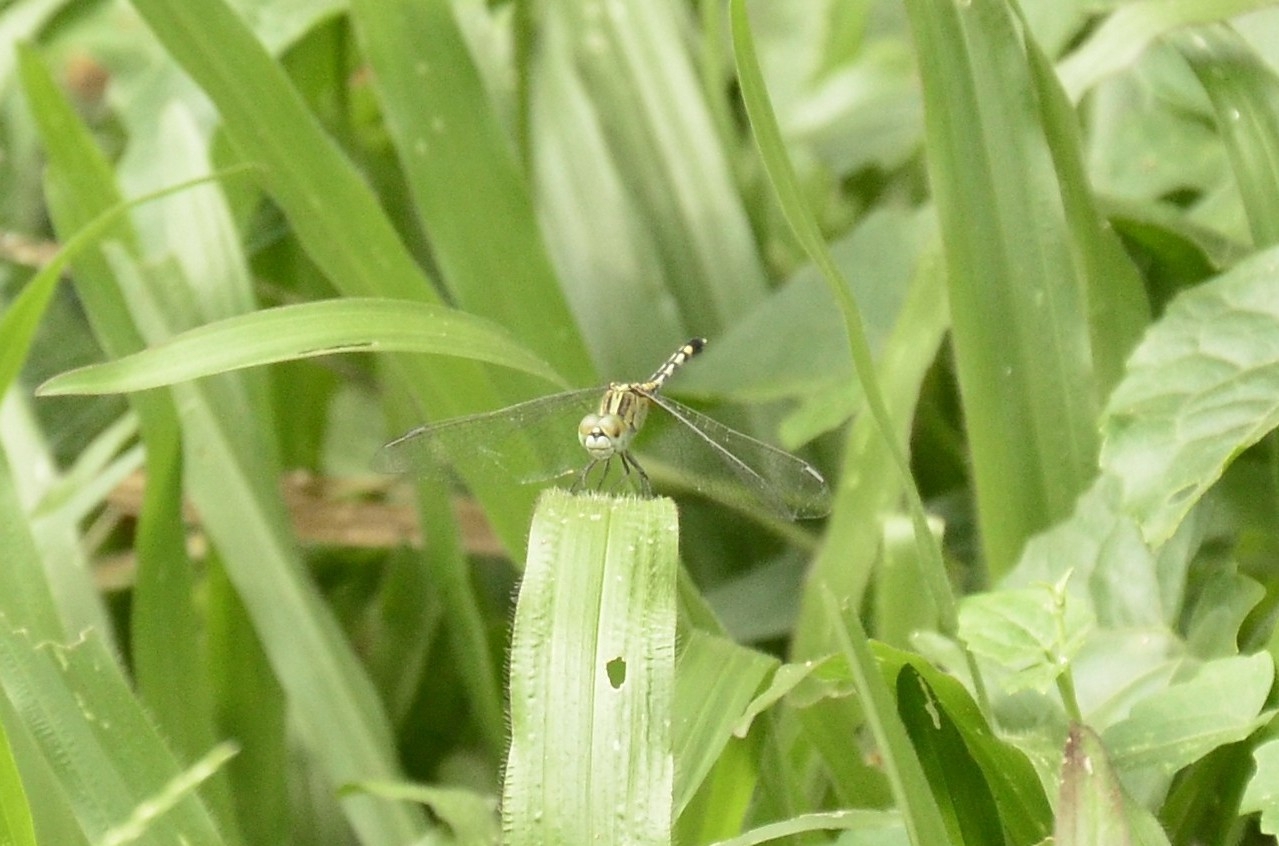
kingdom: Animalia
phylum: Arthropoda
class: Insecta
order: Odonata
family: Libellulidae
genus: Diplacodes
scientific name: Diplacodes trivialis
